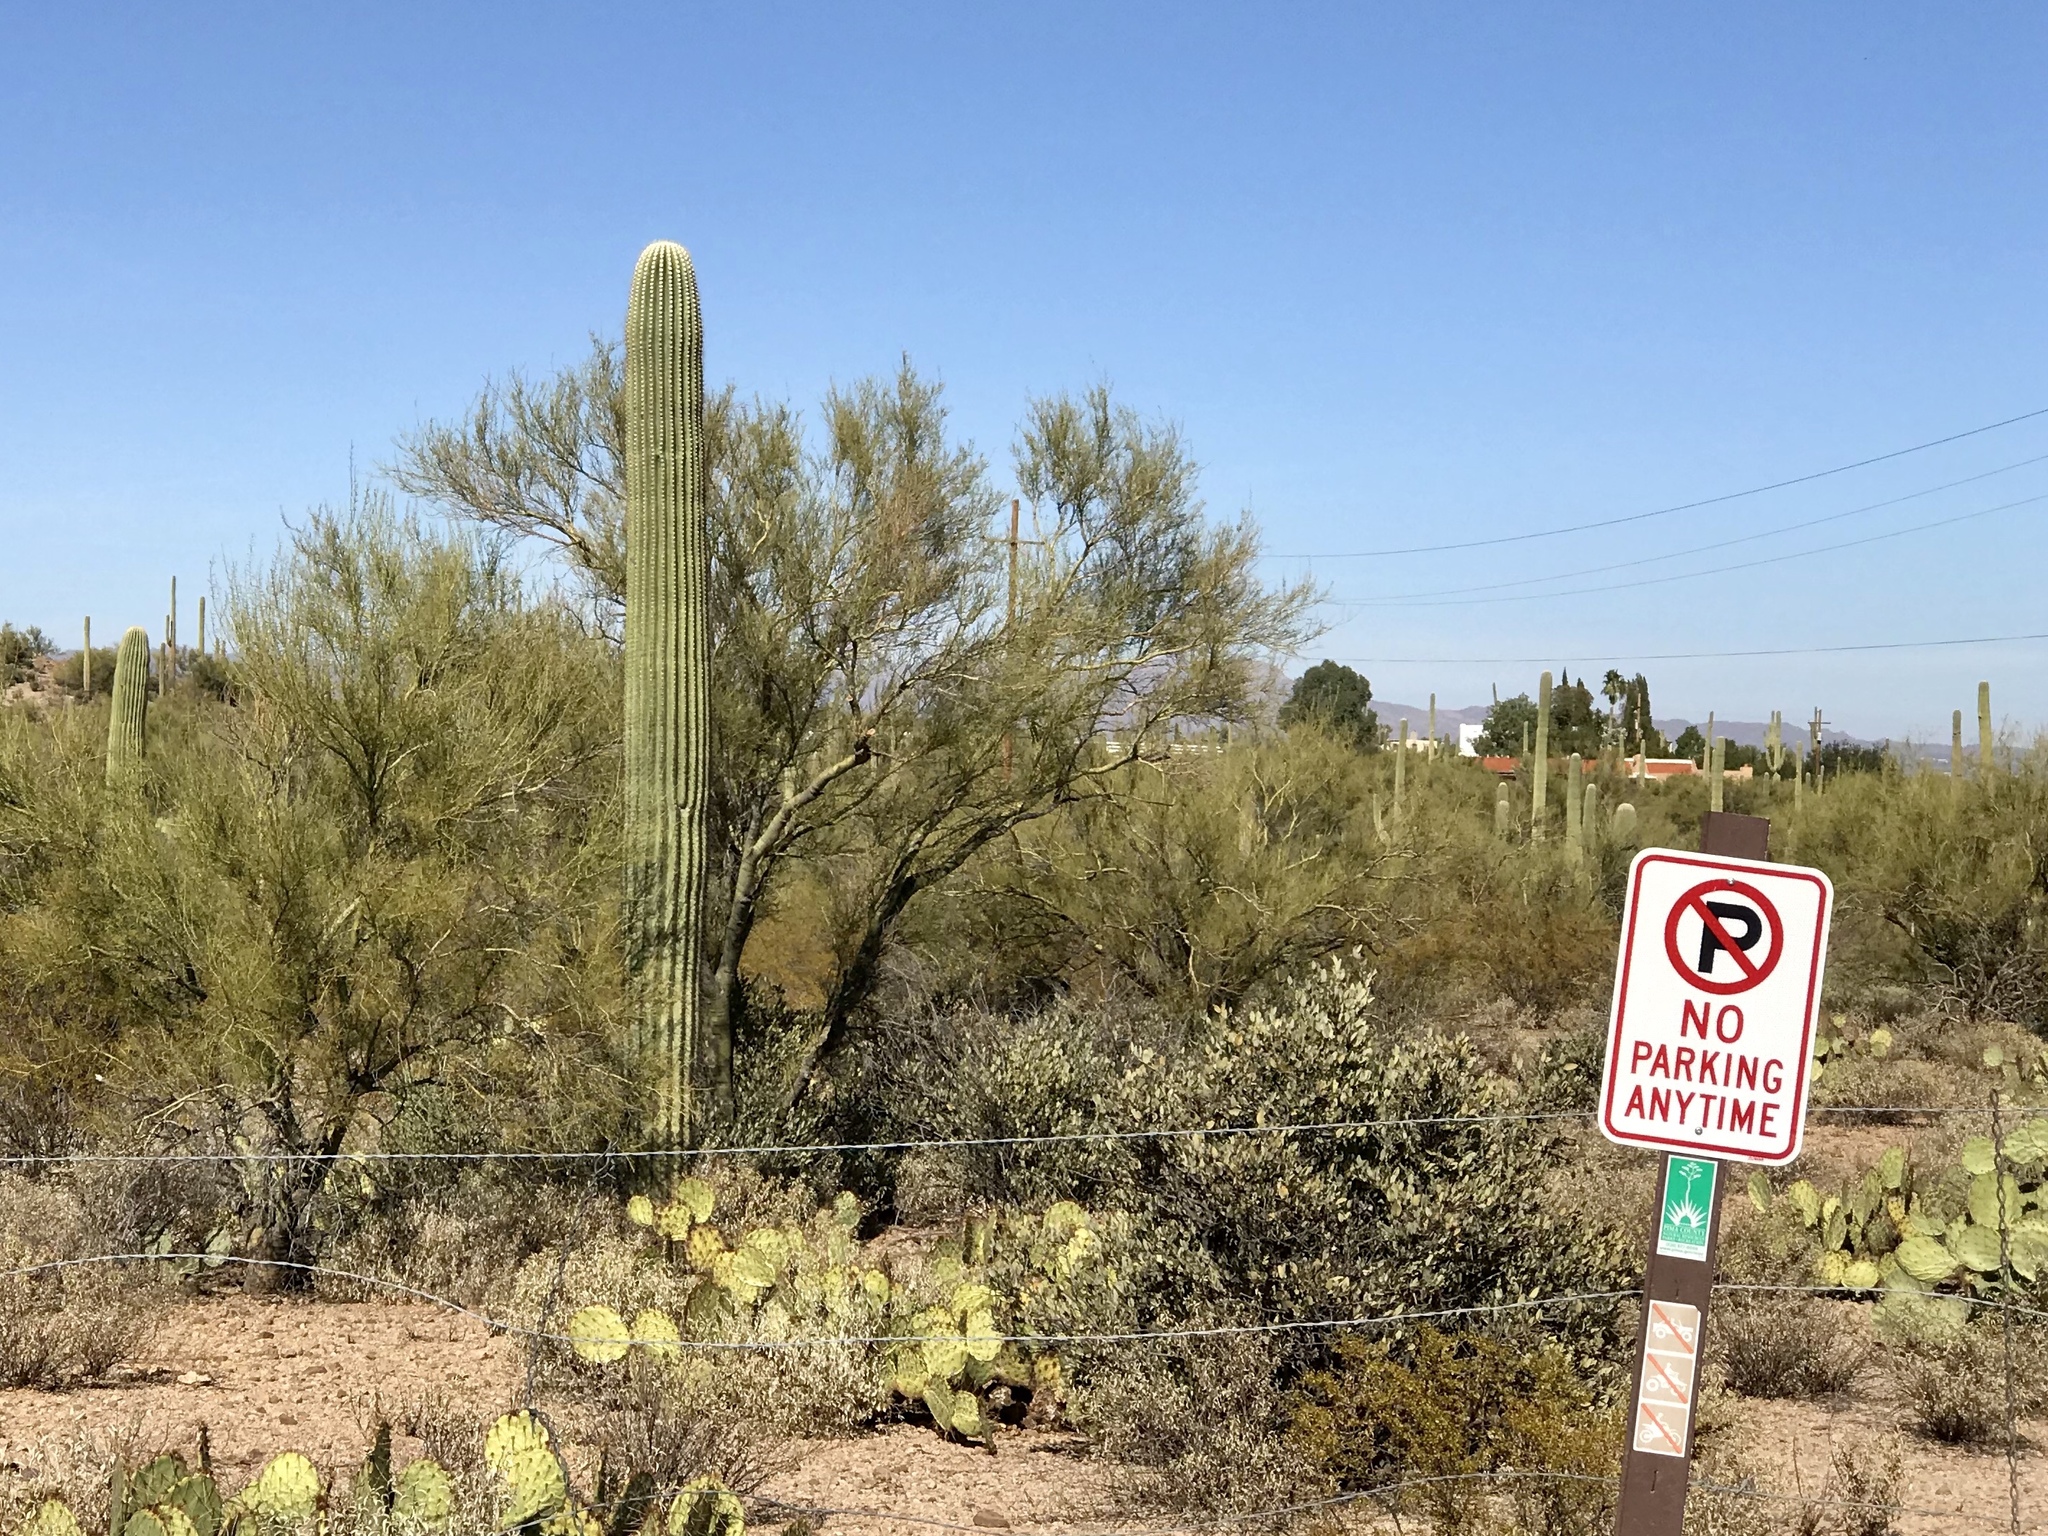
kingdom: Plantae
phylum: Tracheophyta
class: Magnoliopsida
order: Caryophyllales
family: Cactaceae
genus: Carnegiea
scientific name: Carnegiea gigantea
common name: Saguaro
